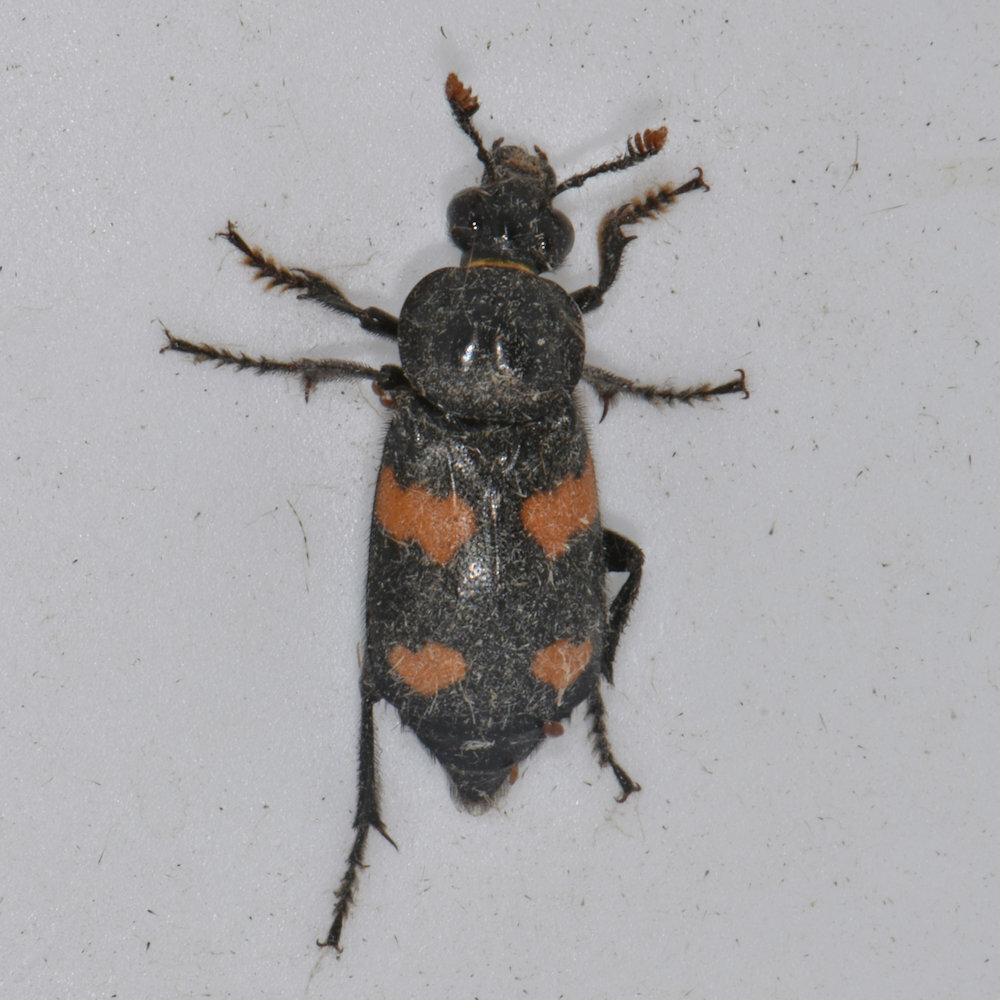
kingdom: Animalia
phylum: Arthropoda
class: Insecta
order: Coleoptera
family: Staphylinidae
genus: Nicrophorus
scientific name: Nicrophorus orbicollis
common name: Roundneck sexton beetle
